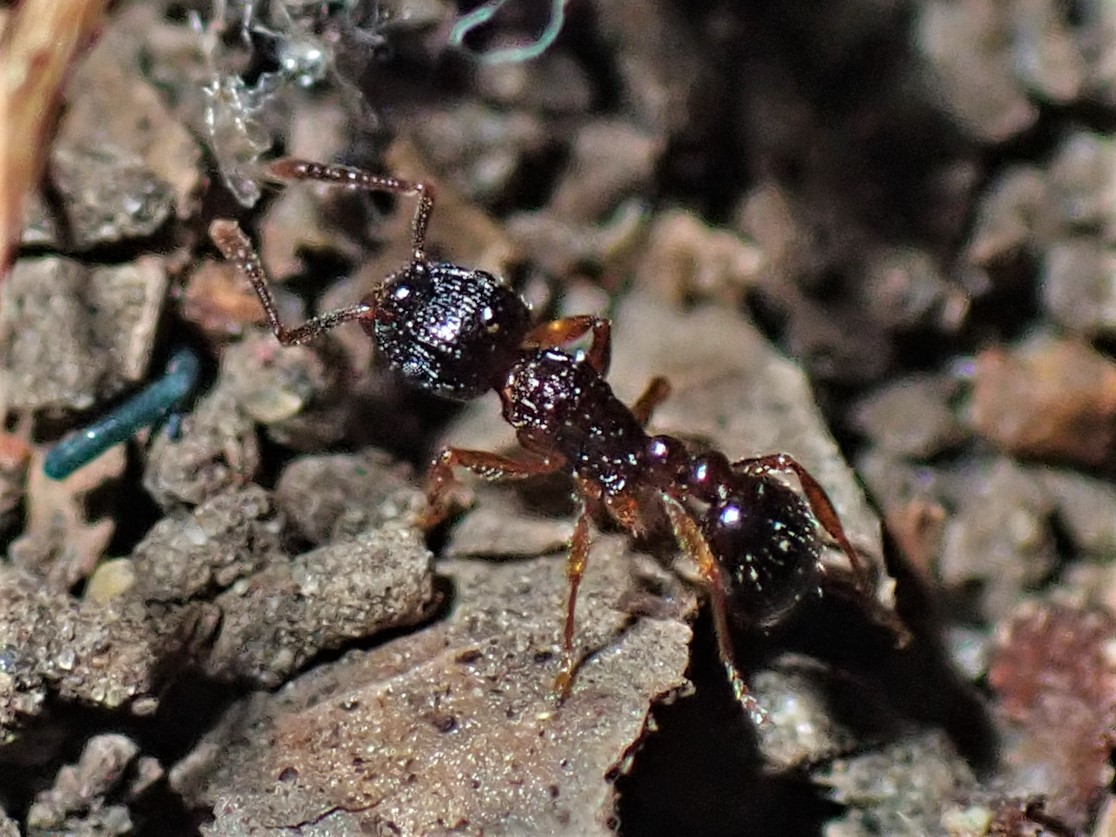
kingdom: Animalia
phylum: Arthropoda
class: Insecta
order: Hymenoptera
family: Formicidae
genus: Tetramorium
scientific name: Tetramorium grassii
